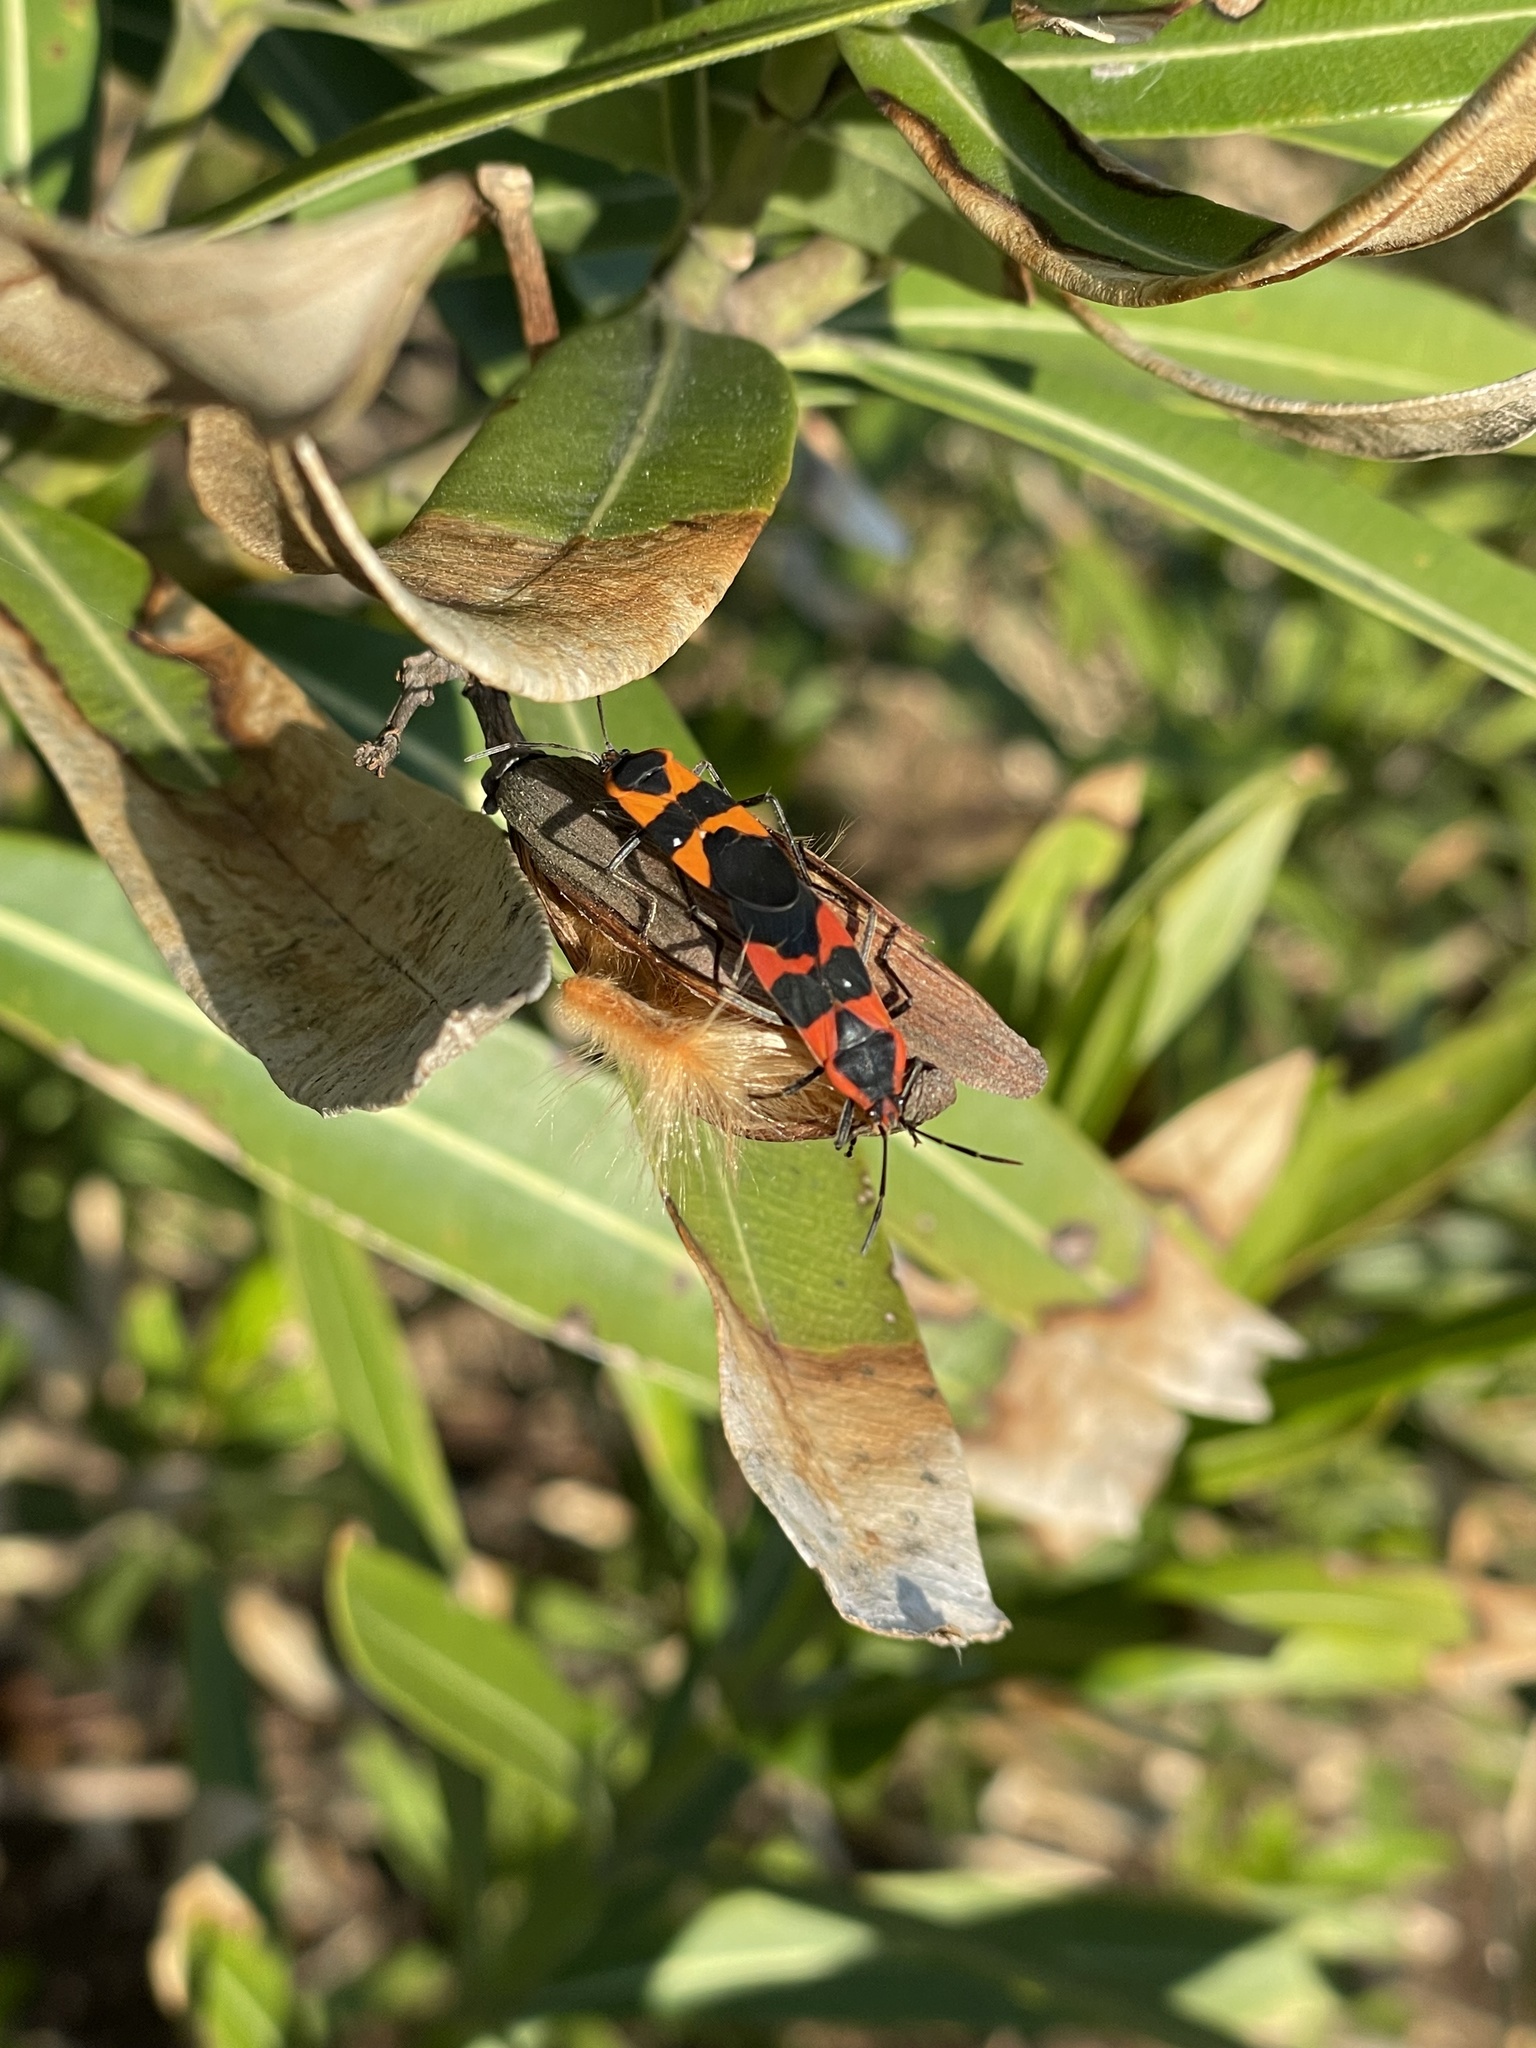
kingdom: Animalia
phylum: Arthropoda
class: Insecta
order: Hemiptera
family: Lygaeidae
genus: Oncopeltus
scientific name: Oncopeltus fasciatus
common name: Large milkweed bug
